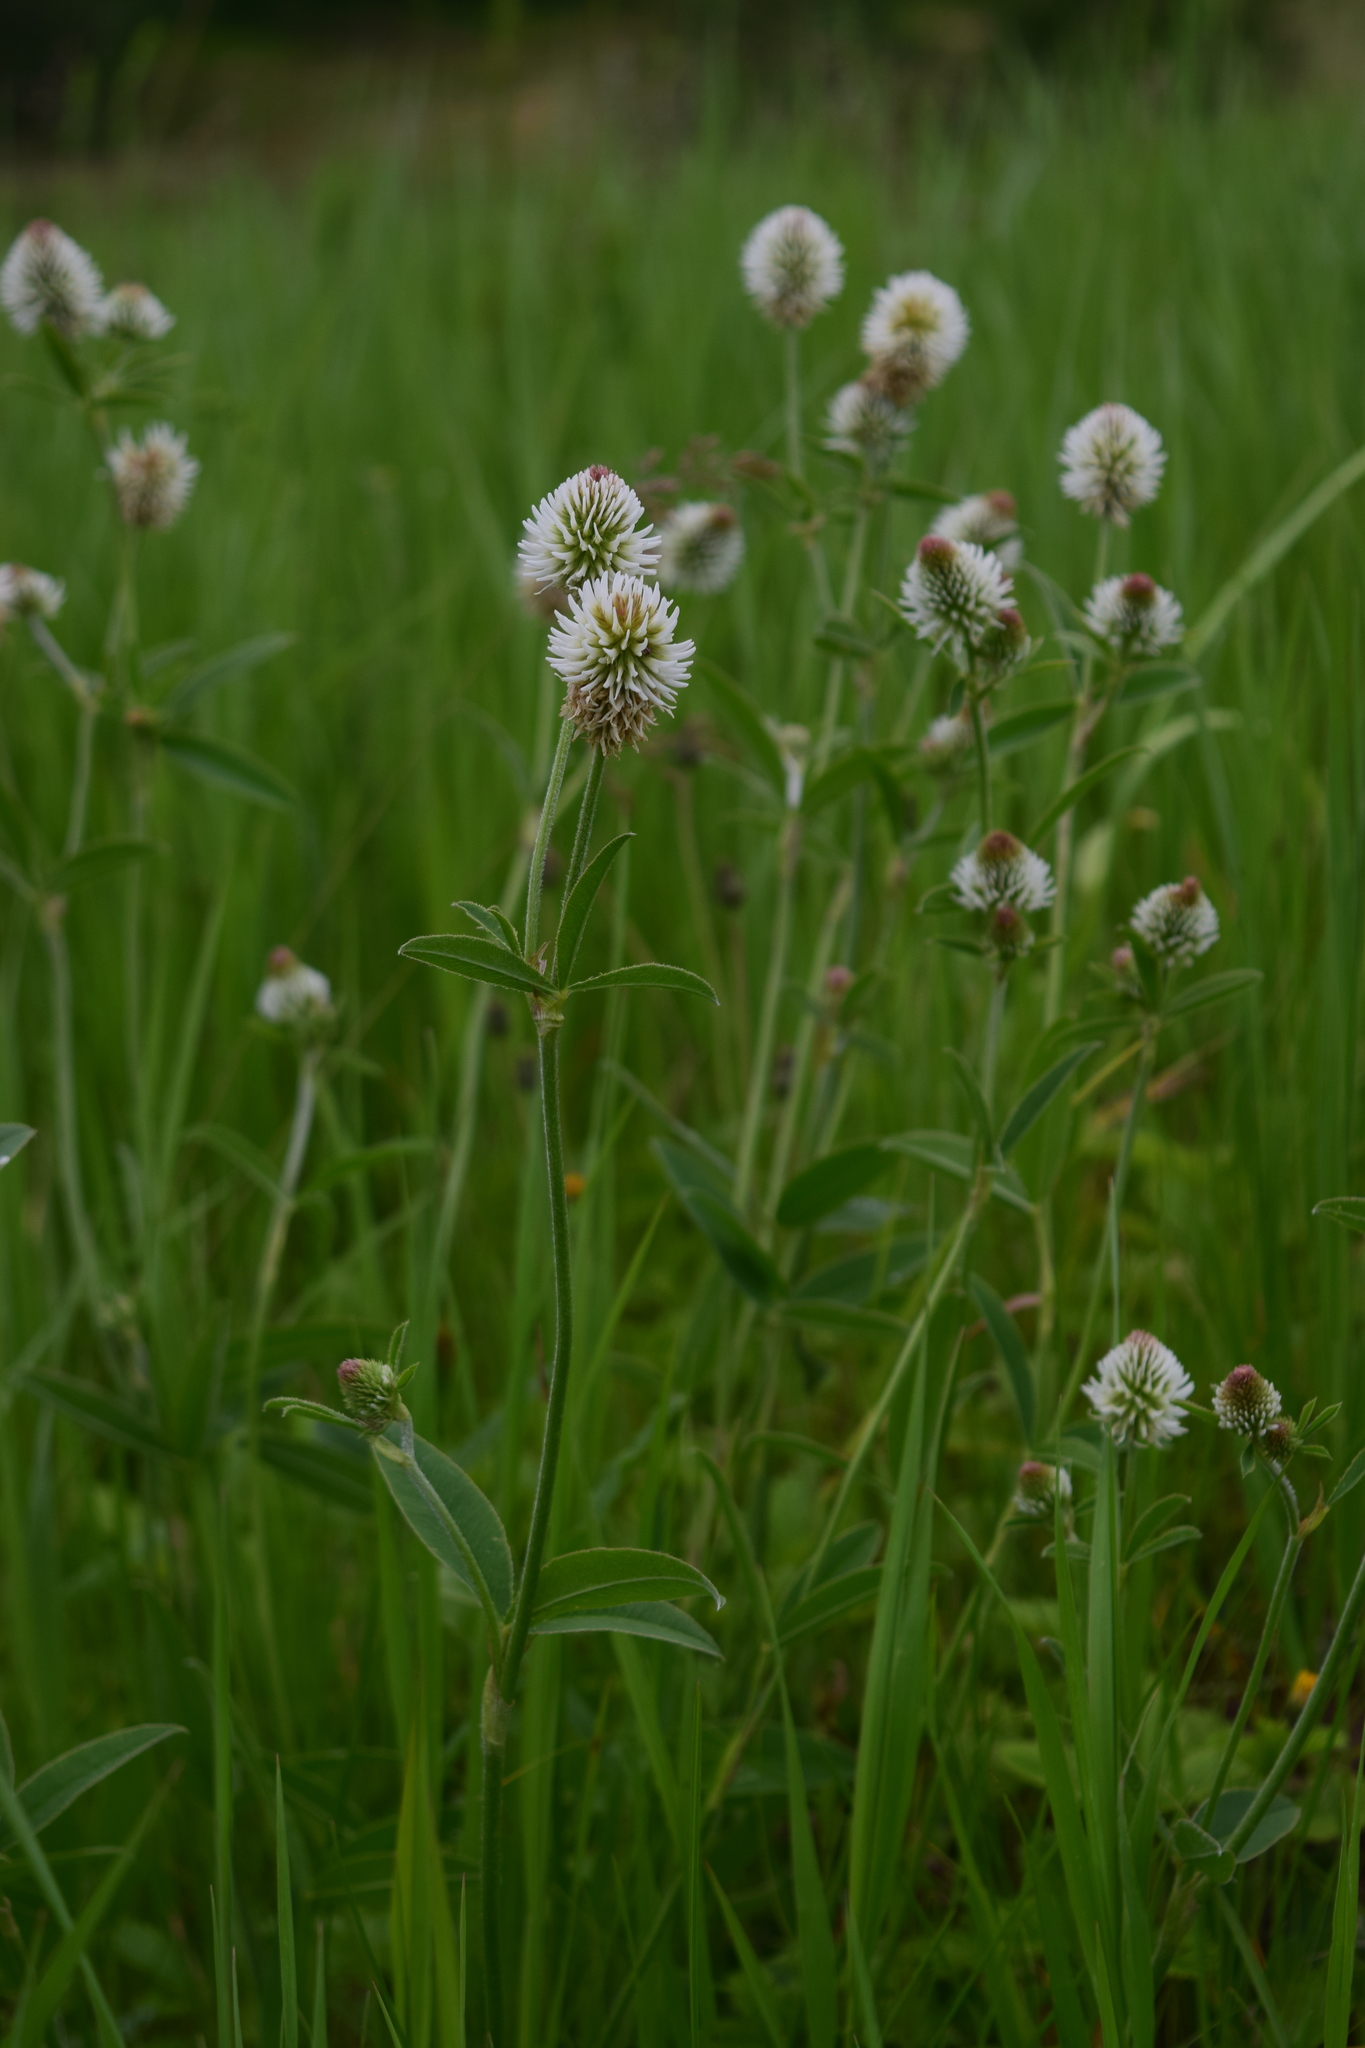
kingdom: Plantae
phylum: Tracheophyta
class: Magnoliopsida
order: Fabales
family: Fabaceae
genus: Trifolium
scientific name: Trifolium montanum
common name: Mountain clover
